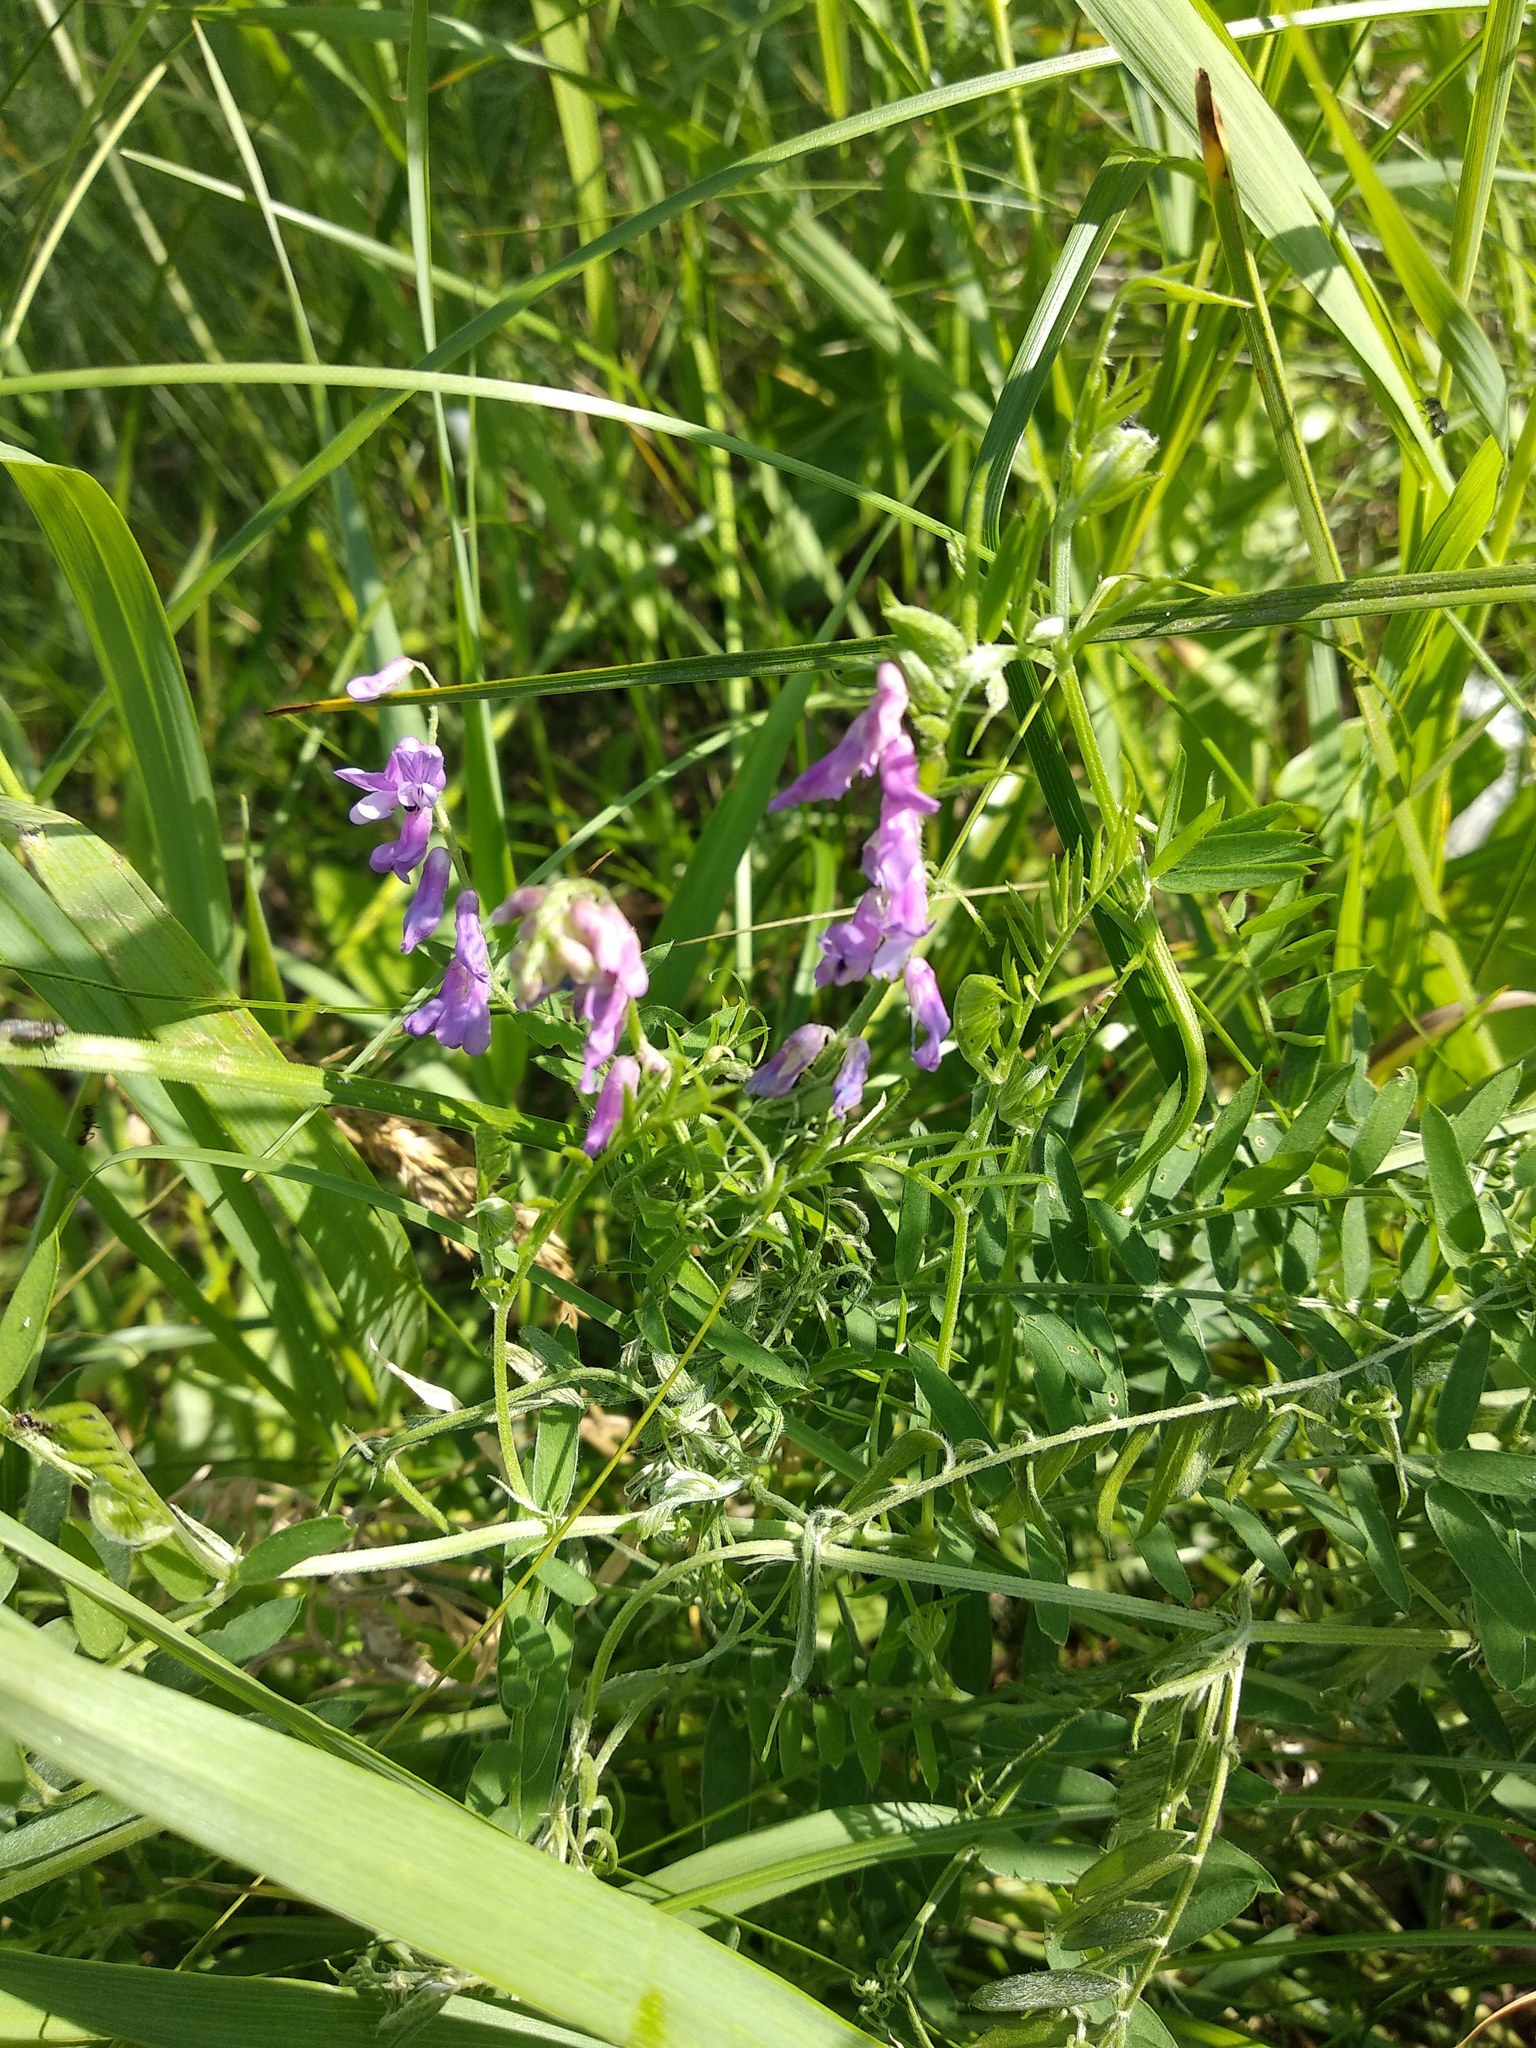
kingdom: Plantae
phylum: Tracheophyta
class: Magnoliopsida
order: Fabales
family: Fabaceae
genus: Vicia
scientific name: Vicia cracca
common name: Bird vetch
